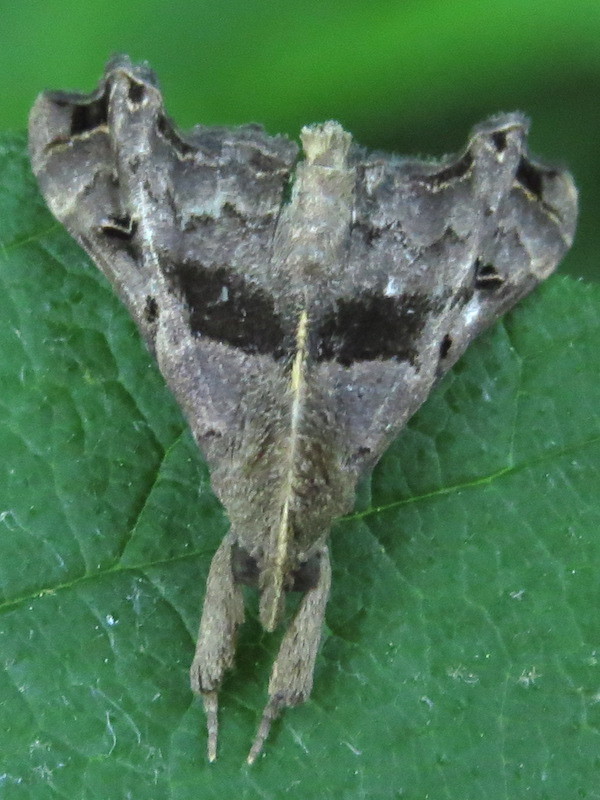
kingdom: Animalia
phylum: Arthropoda
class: Insecta
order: Lepidoptera
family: Erebidae
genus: Palthis
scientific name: Palthis asopialis
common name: Faint-spotted palthis moth
